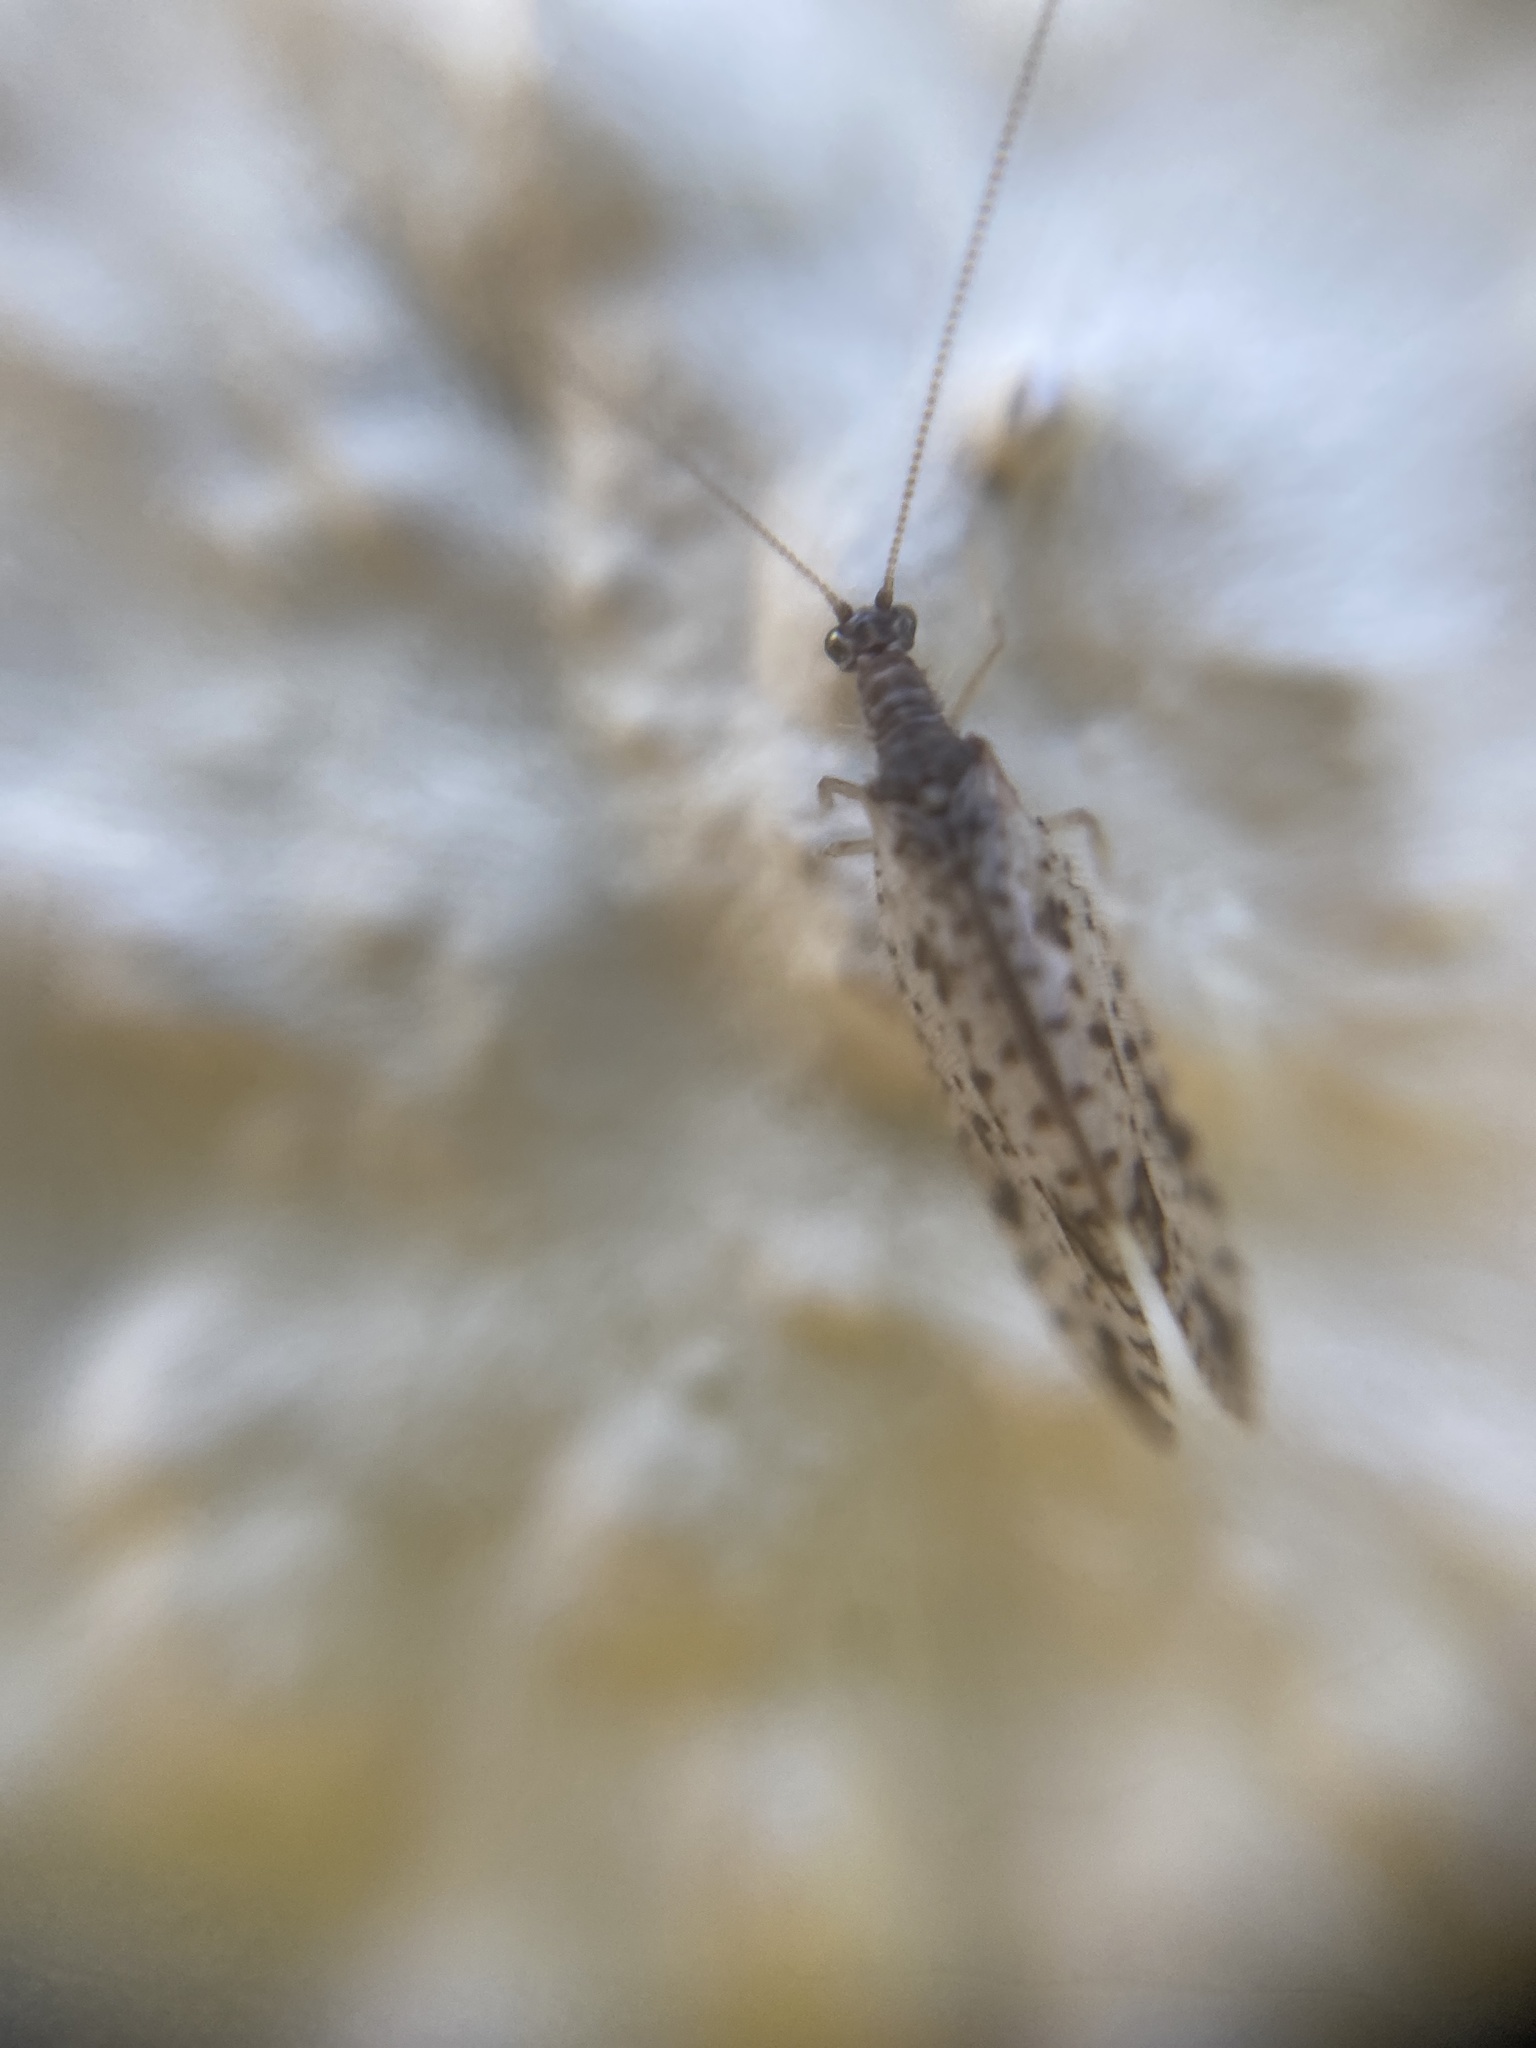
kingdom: Animalia
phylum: Arthropoda
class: Insecta
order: Neuroptera
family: Hemerobiidae
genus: Micromus
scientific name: Micromus variegatus
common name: Brown lacewing
